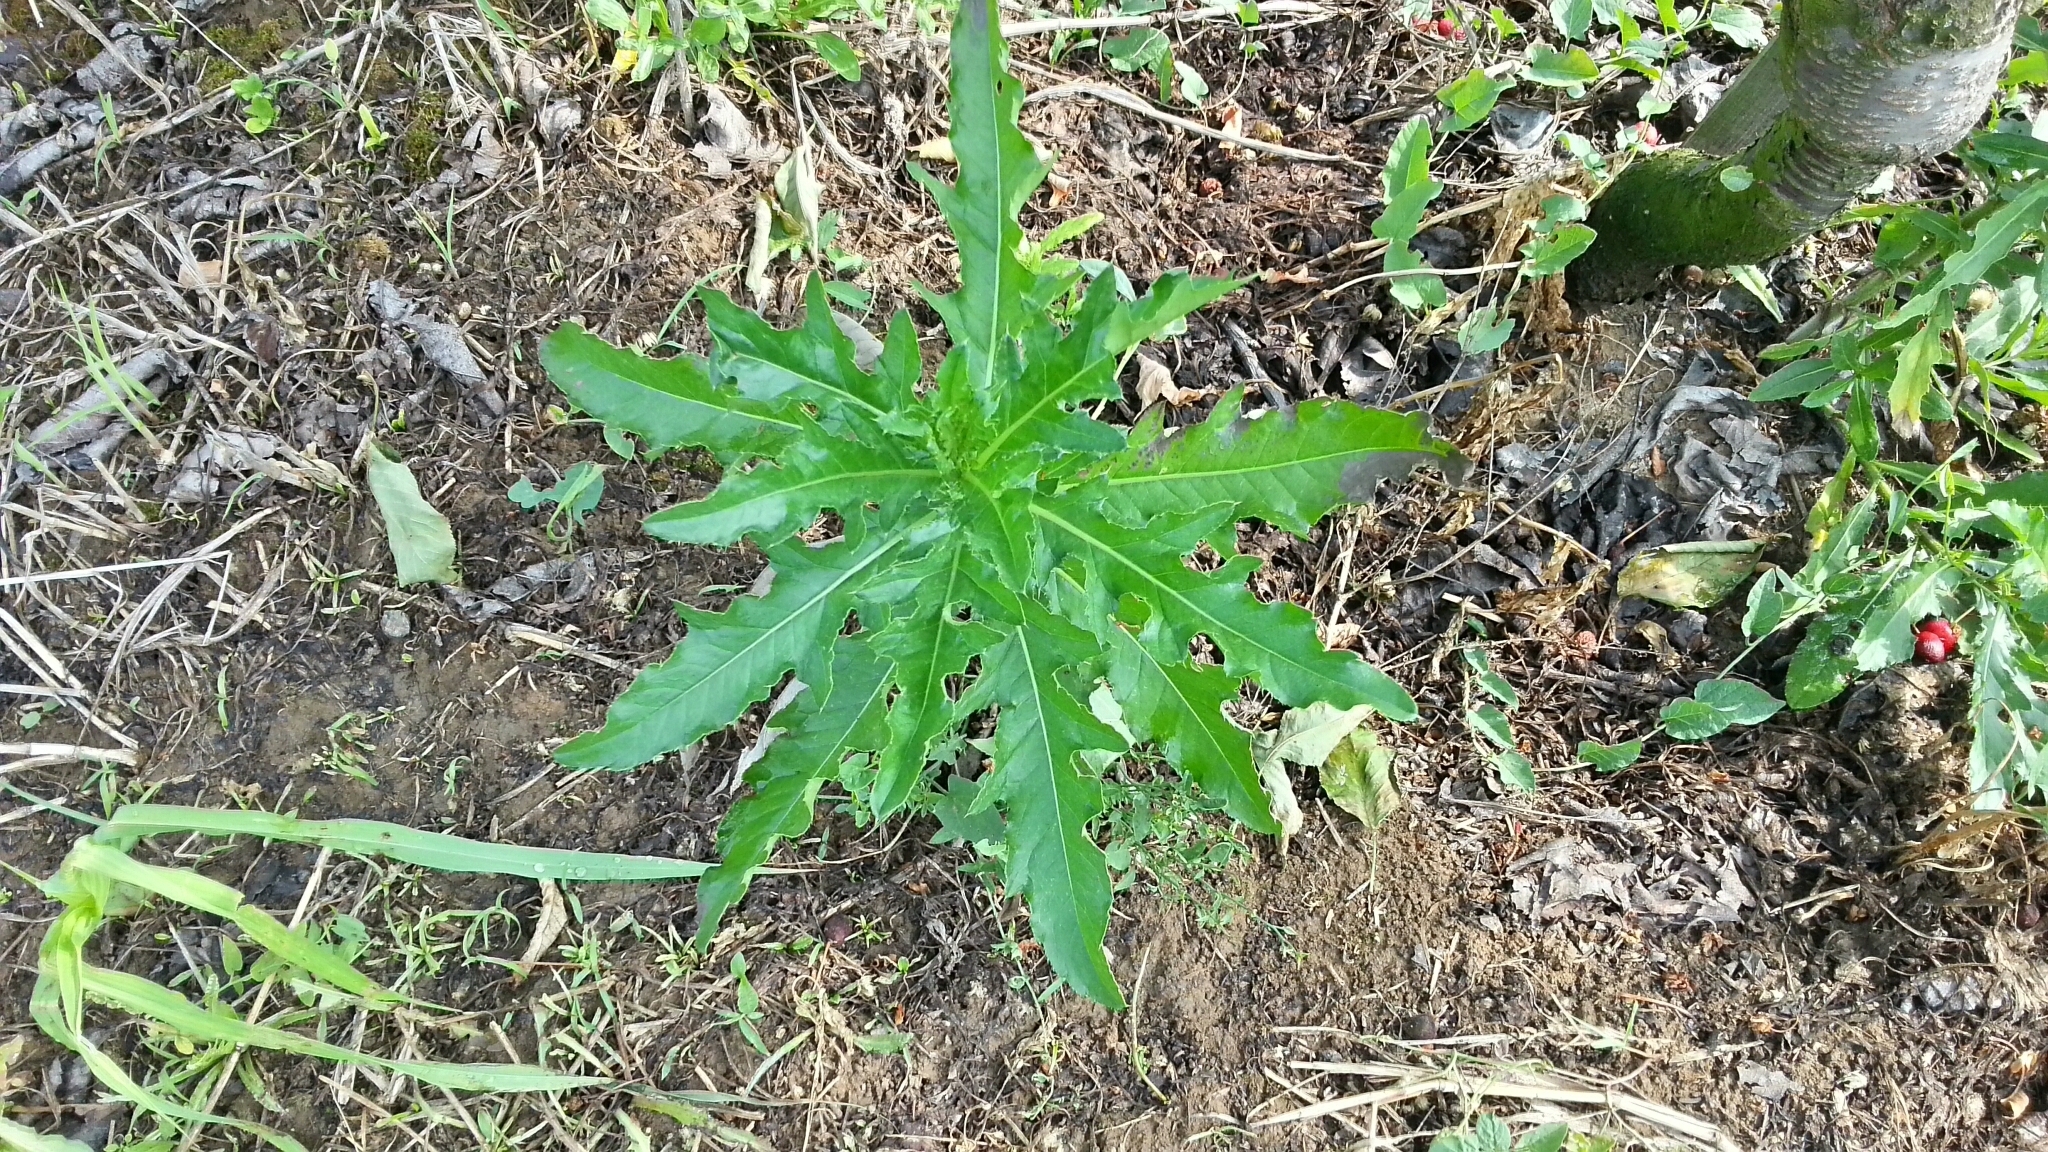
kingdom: Plantae
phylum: Tracheophyta
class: Magnoliopsida
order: Asterales
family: Asteraceae
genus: Cirsium
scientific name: Cirsium arvense
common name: Creeping thistle
